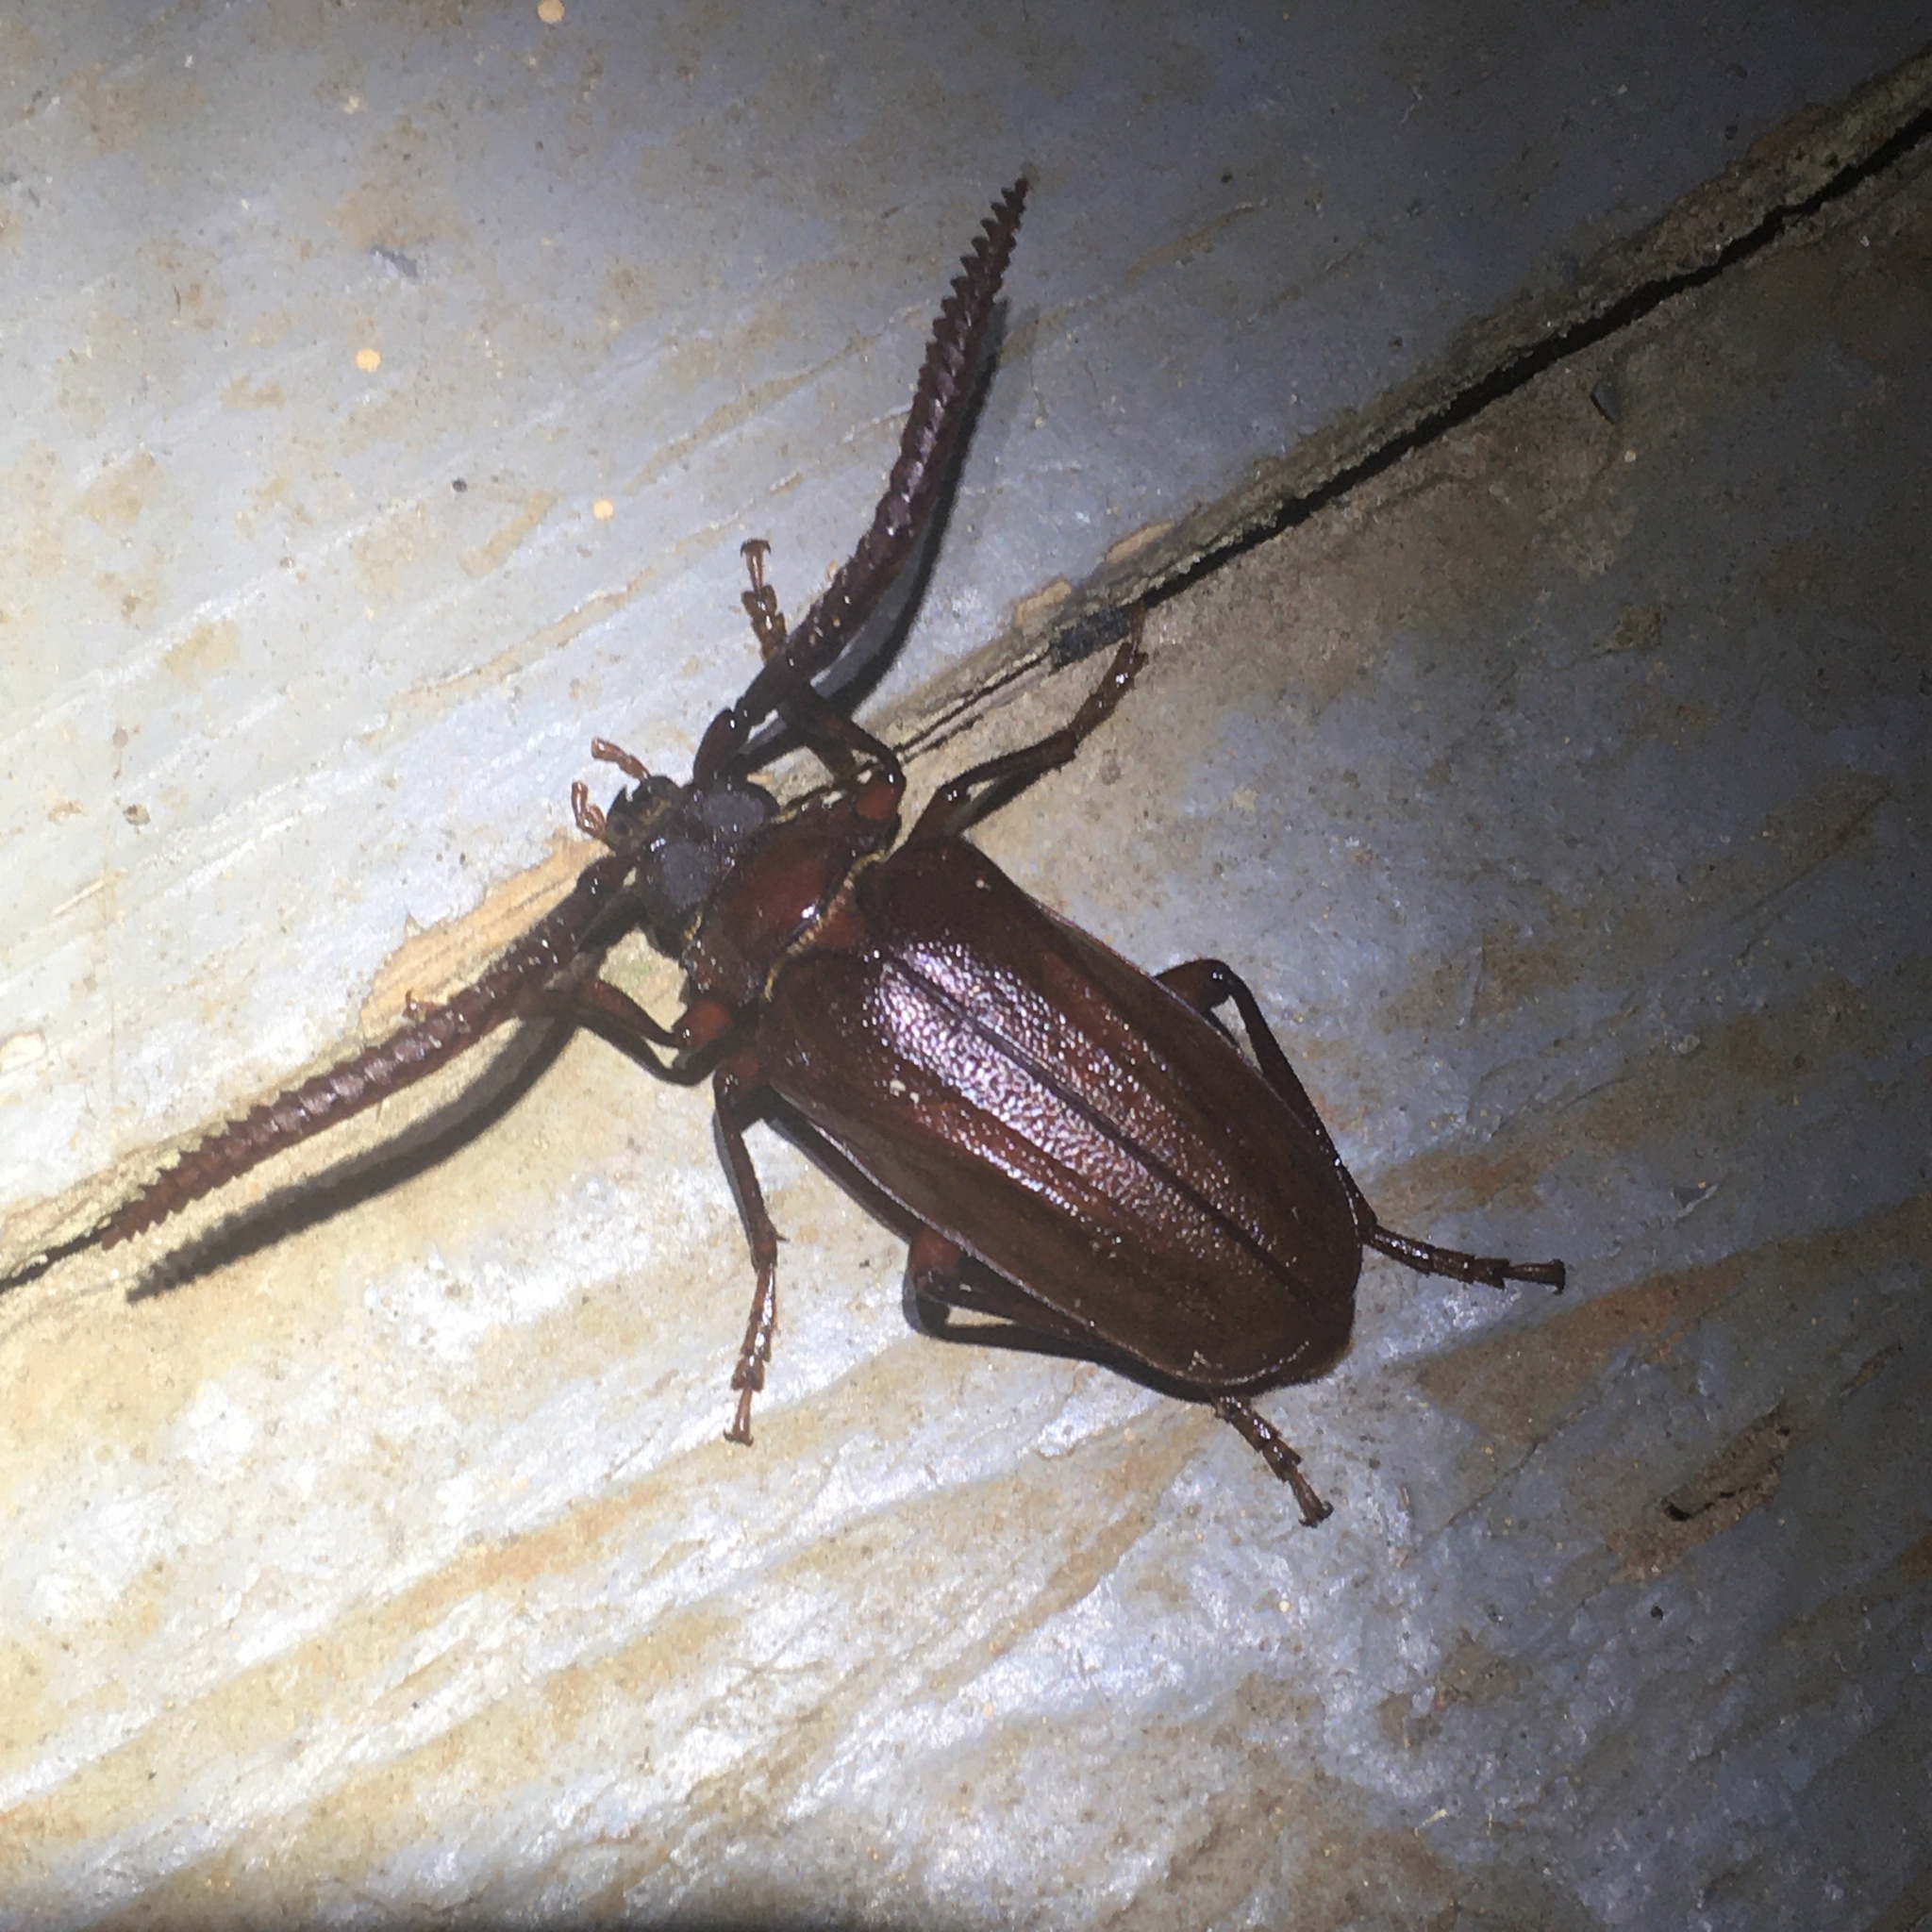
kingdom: Animalia
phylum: Arthropoda
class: Insecta
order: Coleoptera
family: Cerambycidae
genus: Prionus
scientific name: Prionus imbricornis
